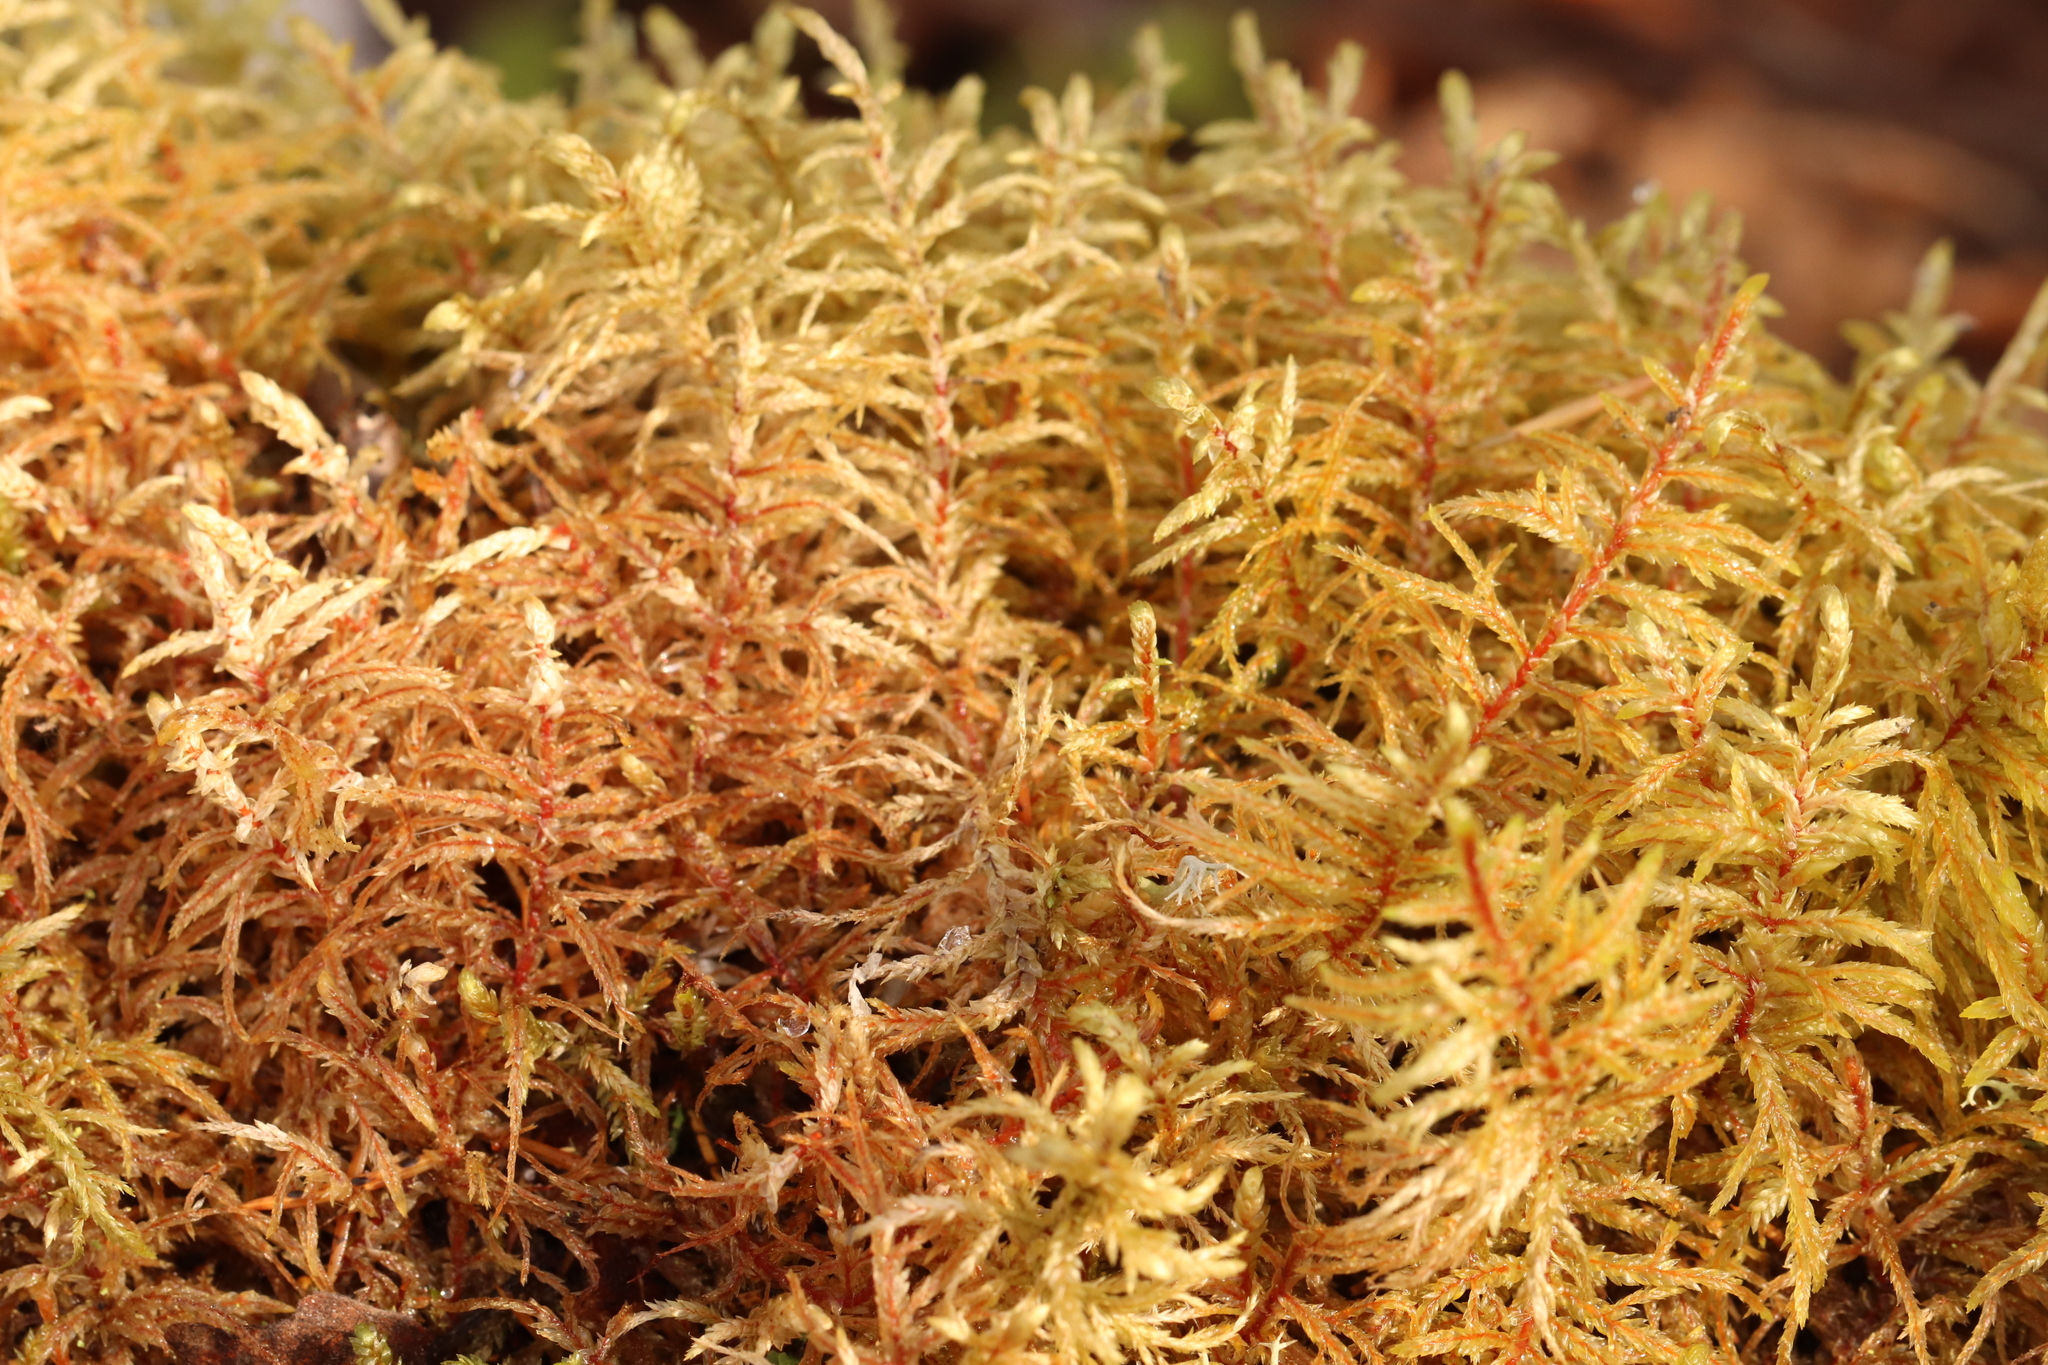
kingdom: Plantae
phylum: Bryophyta
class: Bryopsida
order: Hypnales
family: Hylocomiaceae
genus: Pleurozium
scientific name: Pleurozium schreberi
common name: Red-stemmed feather moss
